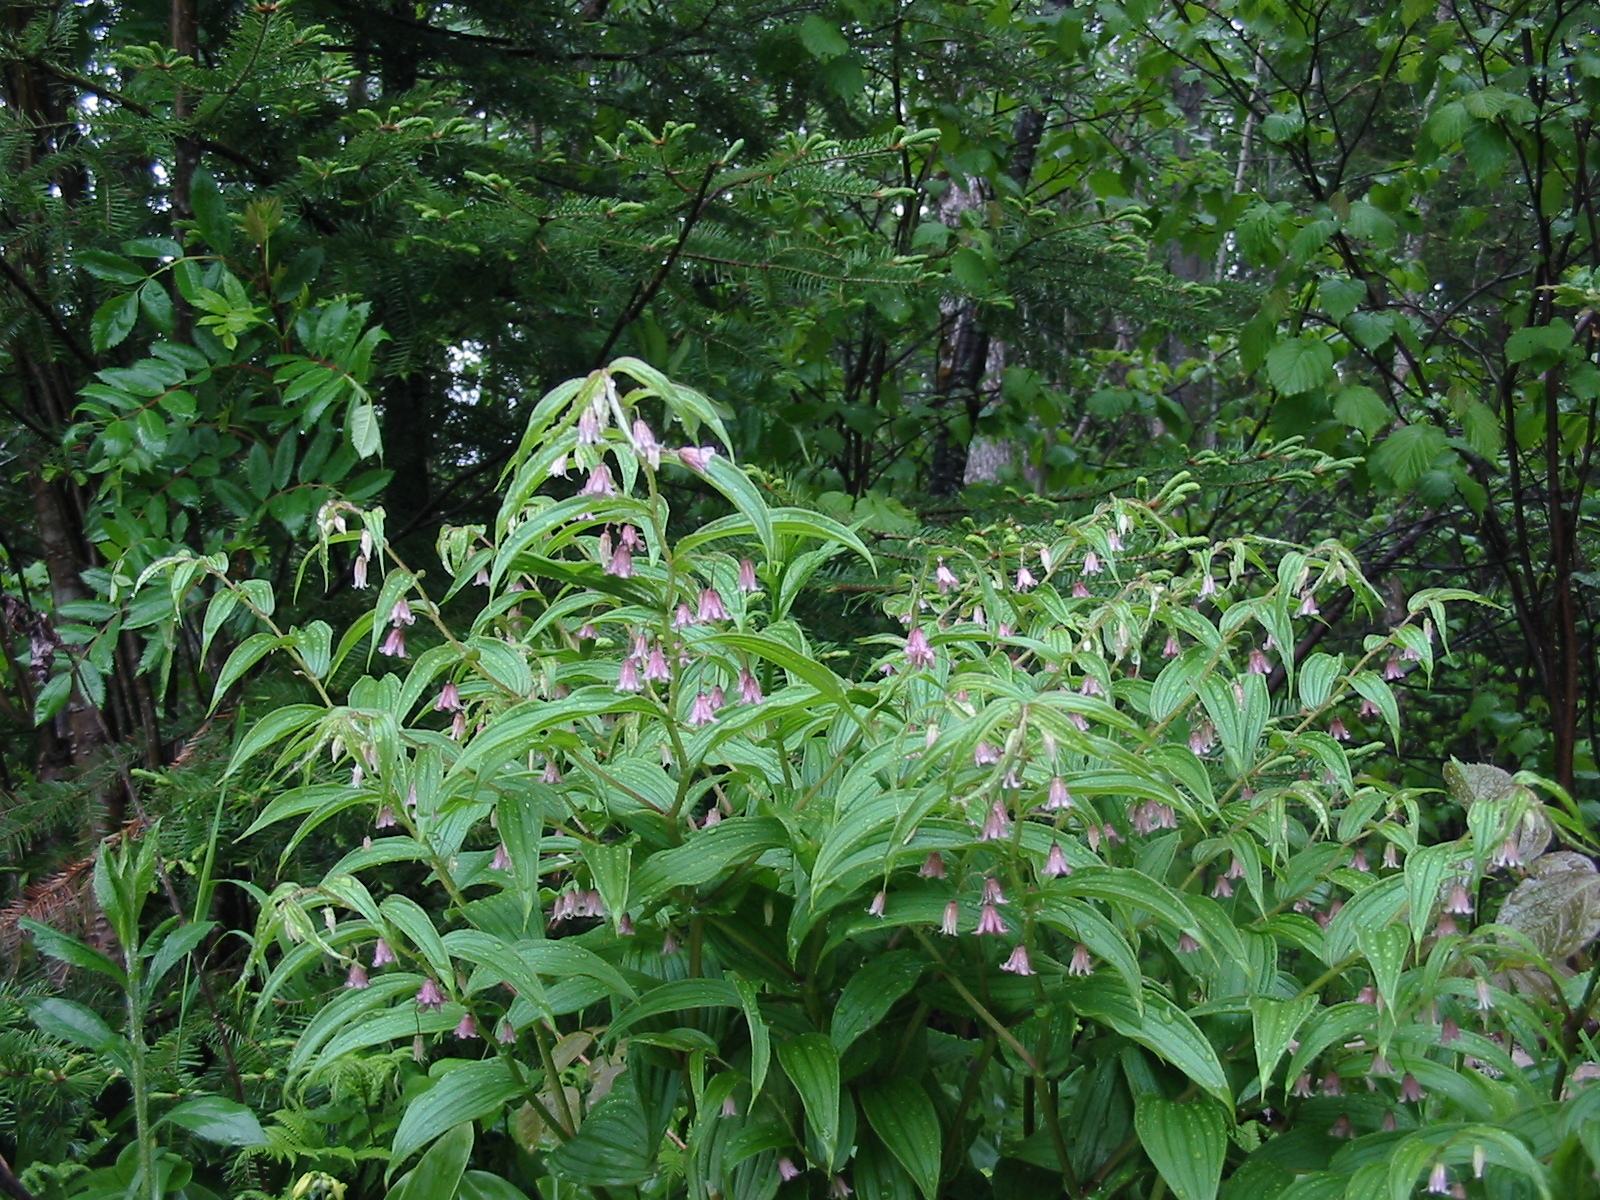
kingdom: Plantae
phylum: Tracheophyta
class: Liliopsida
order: Liliales
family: Liliaceae
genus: Streptopus
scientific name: Streptopus lanceolatus
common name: Rose mandarin
